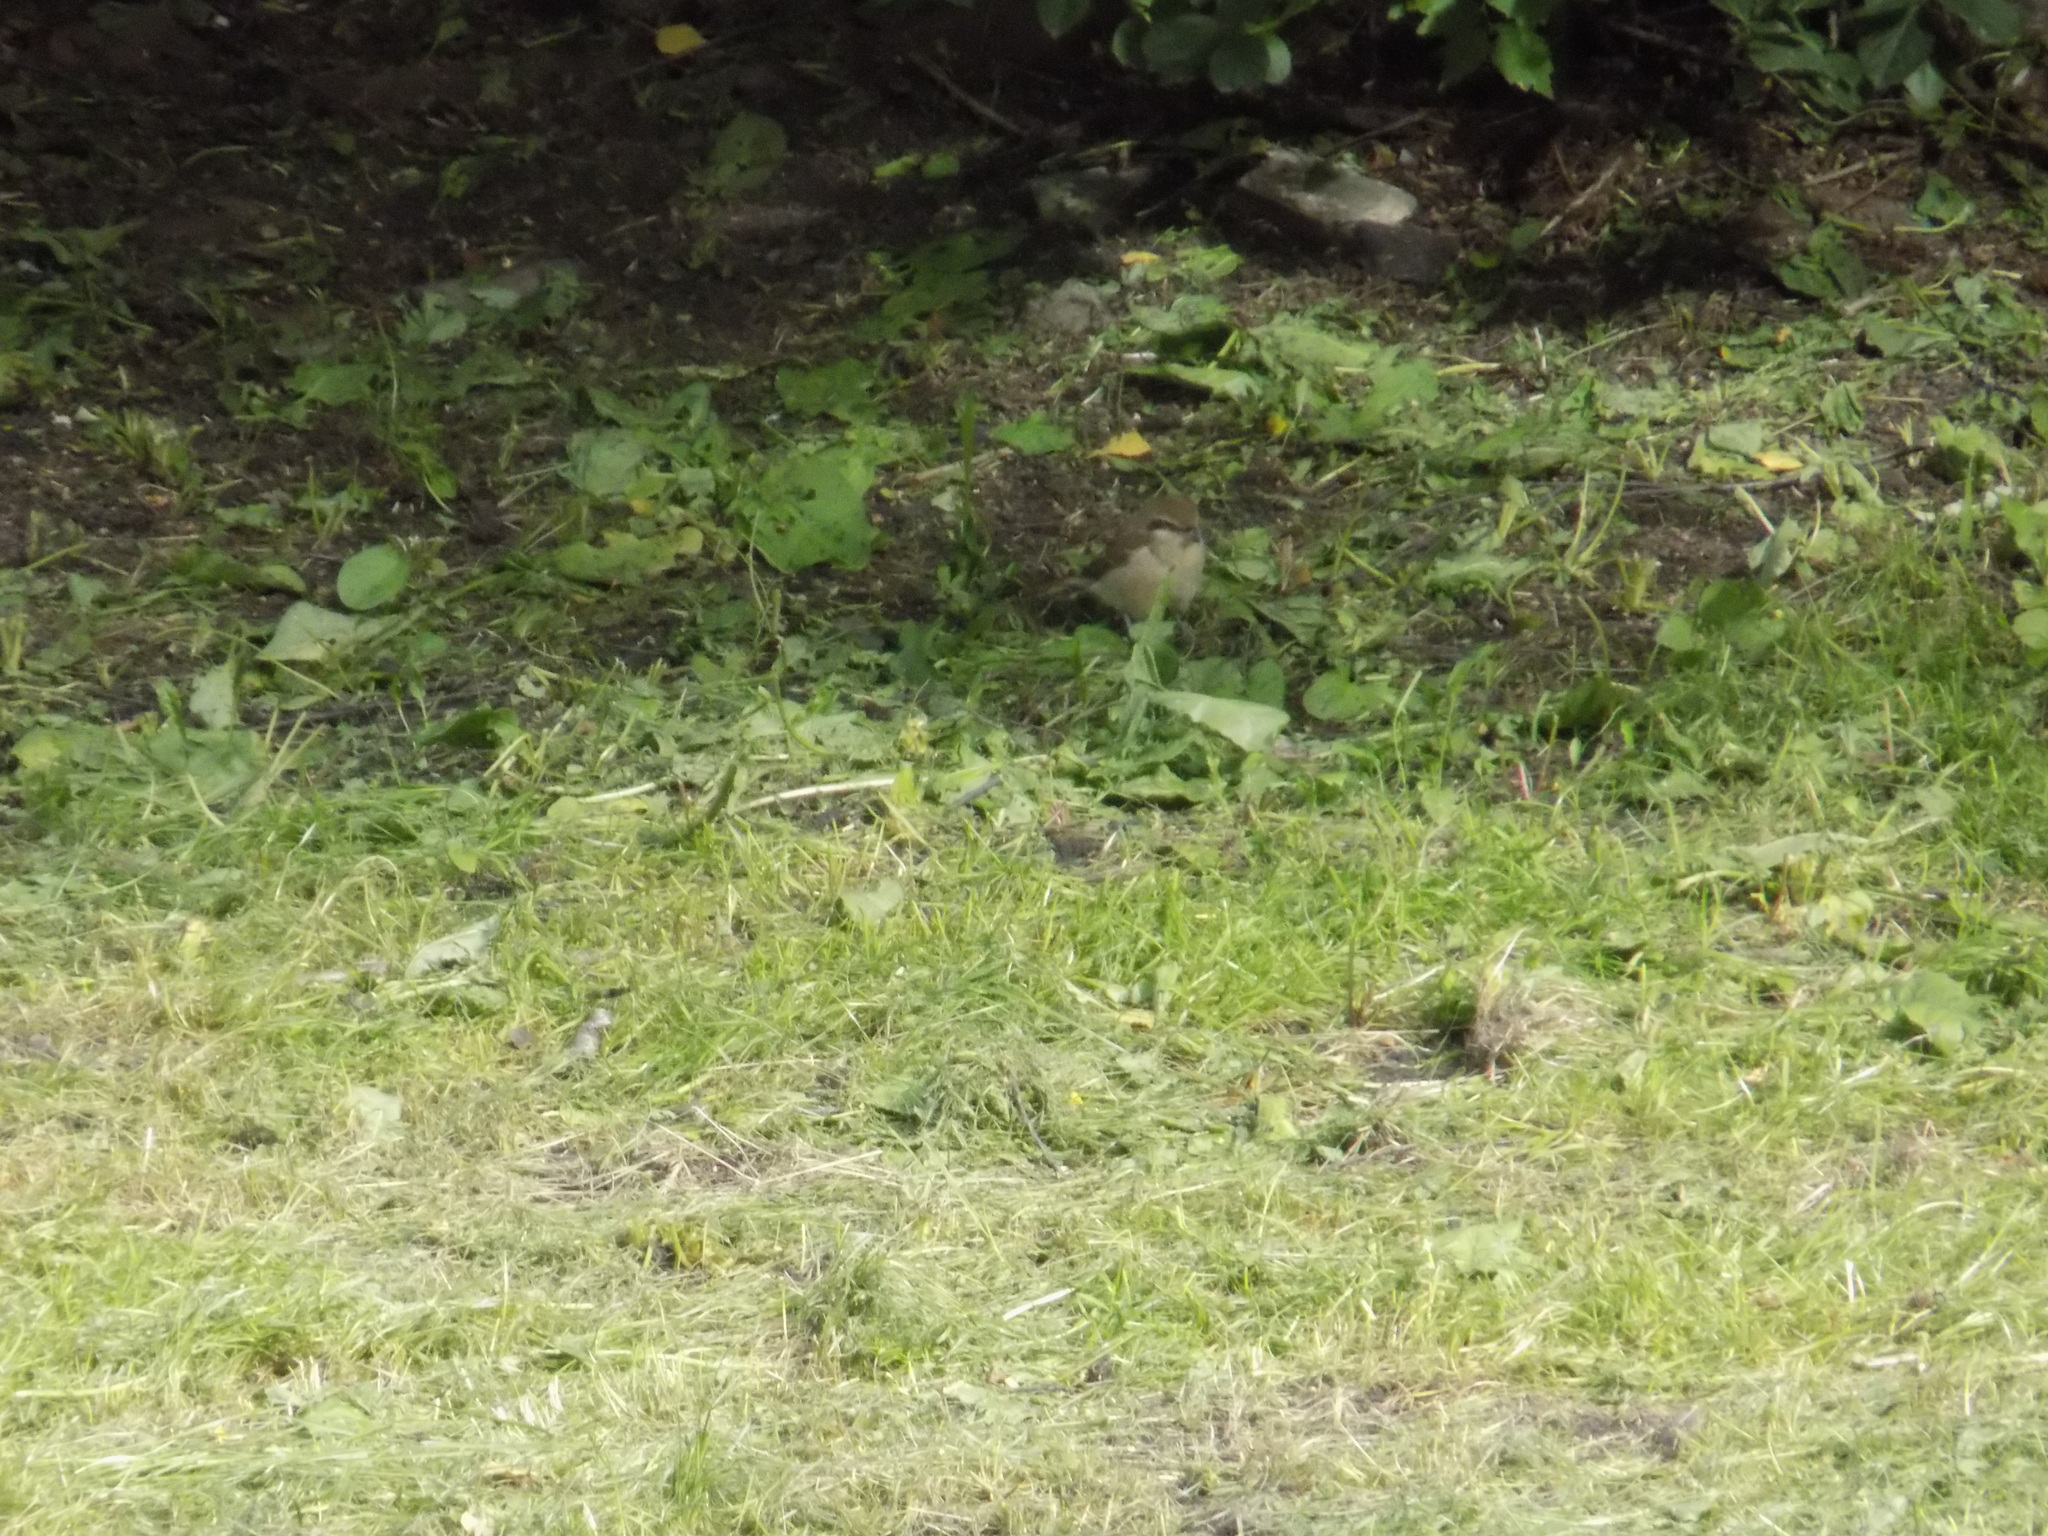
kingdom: Animalia
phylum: Chordata
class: Aves
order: Passeriformes
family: Laniidae
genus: Lanius
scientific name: Lanius cristatus
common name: Brown shrike
